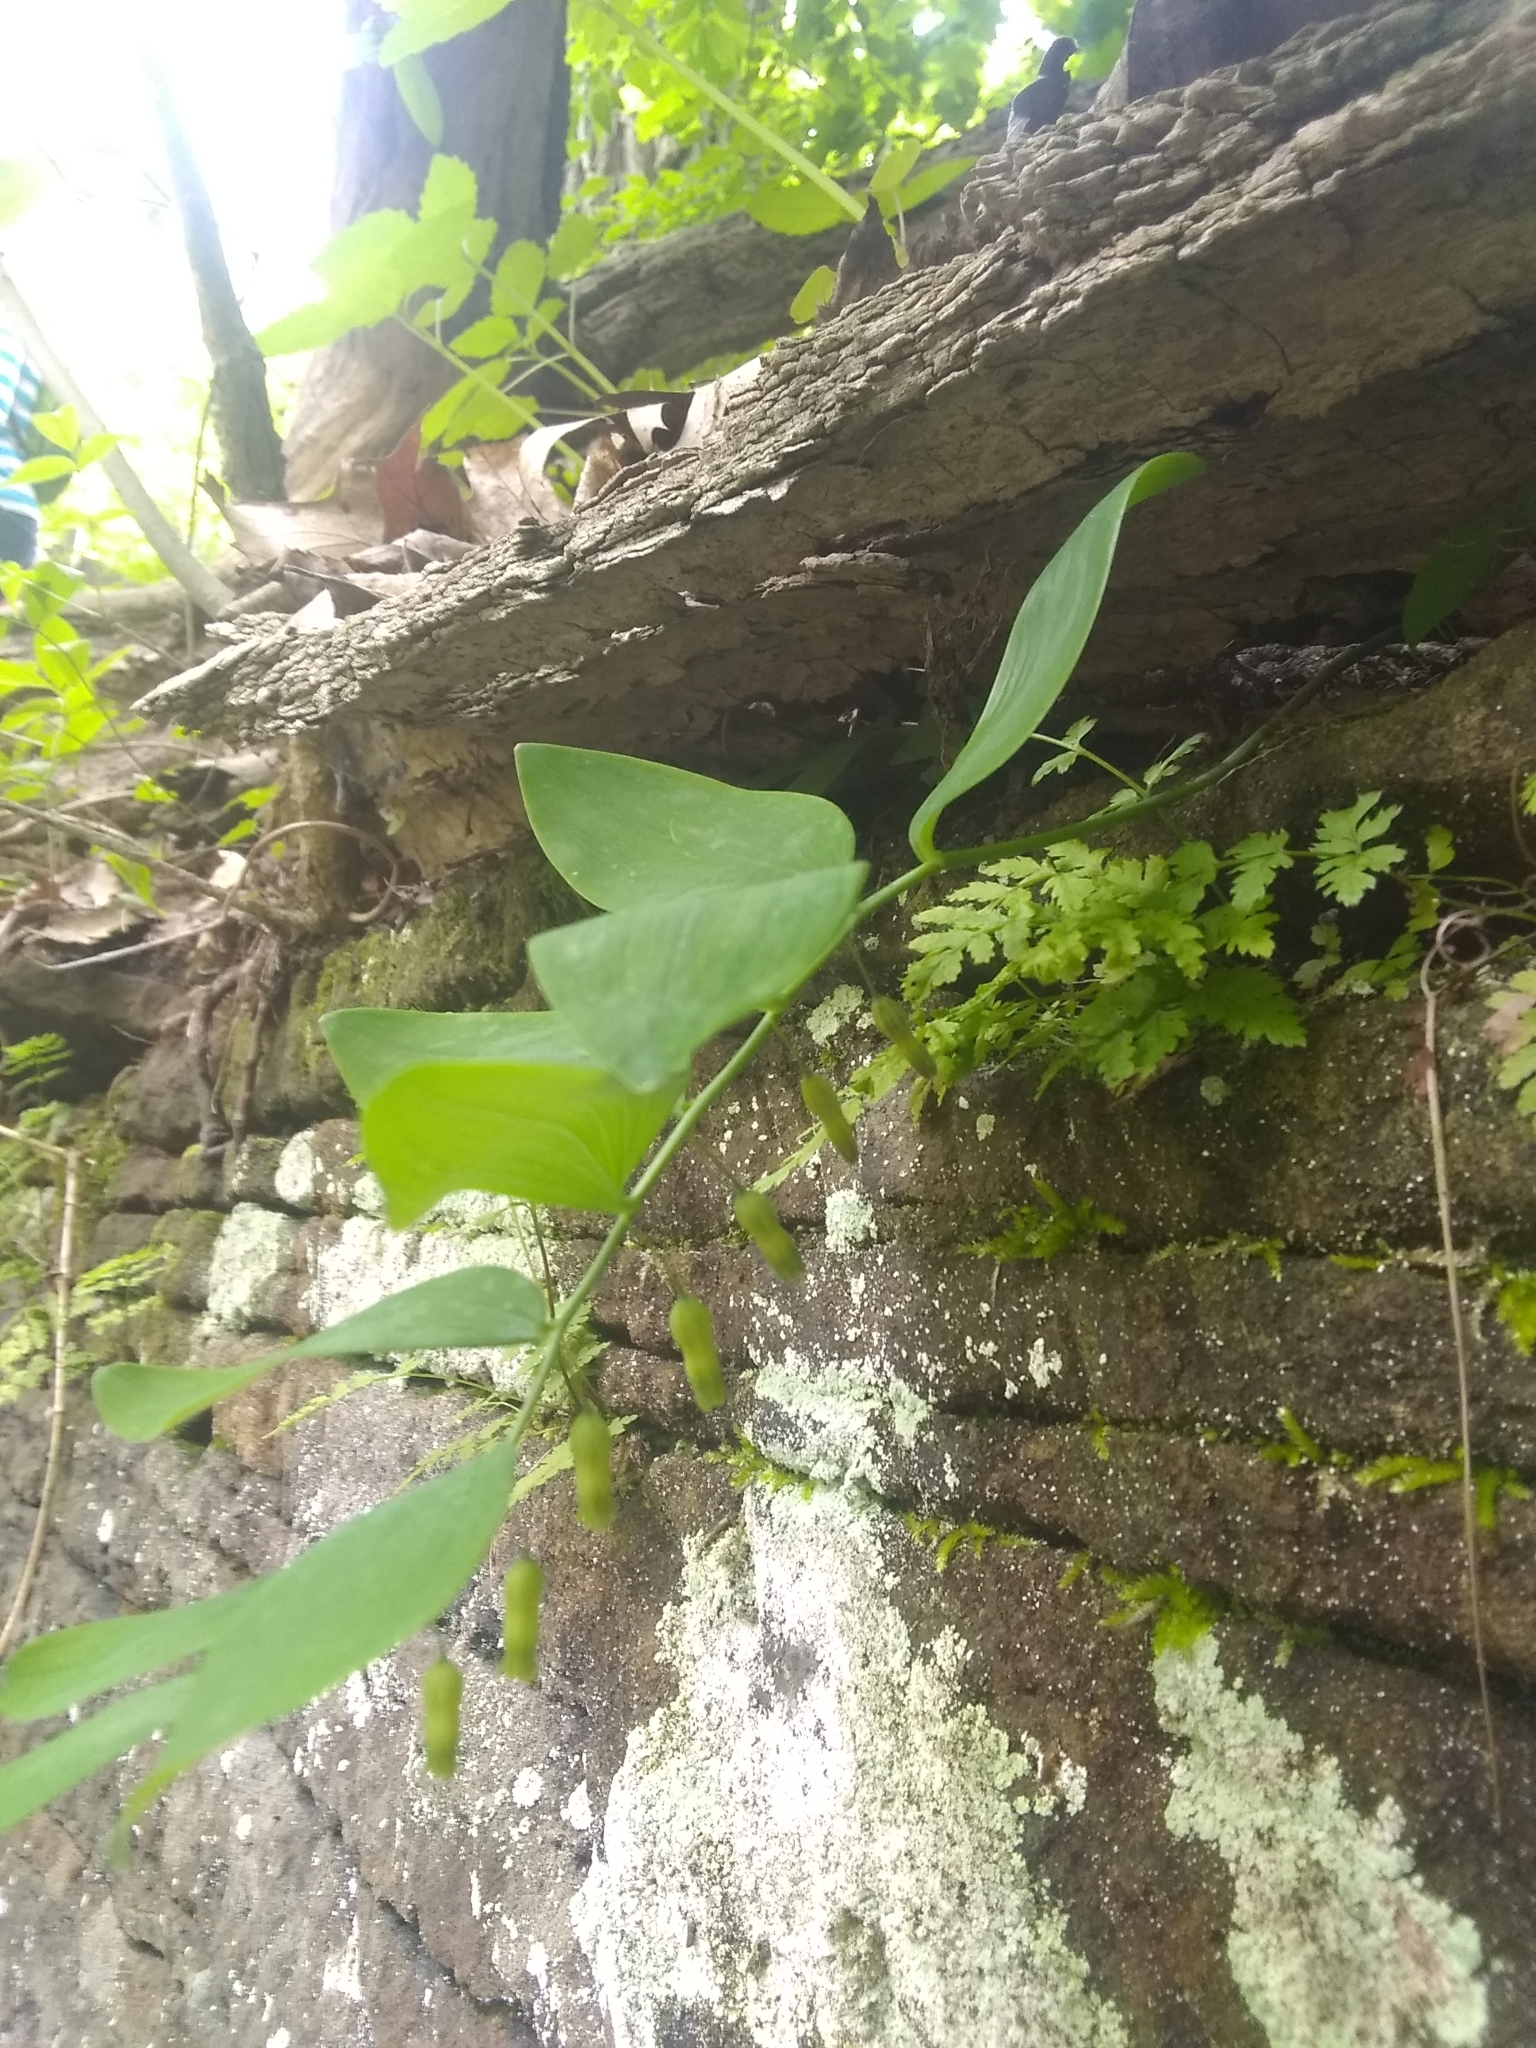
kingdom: Plantae
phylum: Tracheophyta
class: Liliopsida
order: Asparagales
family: Asparagaceae
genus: Polygonatum
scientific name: Polygonatum pubescens
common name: Downy solomon's seal
